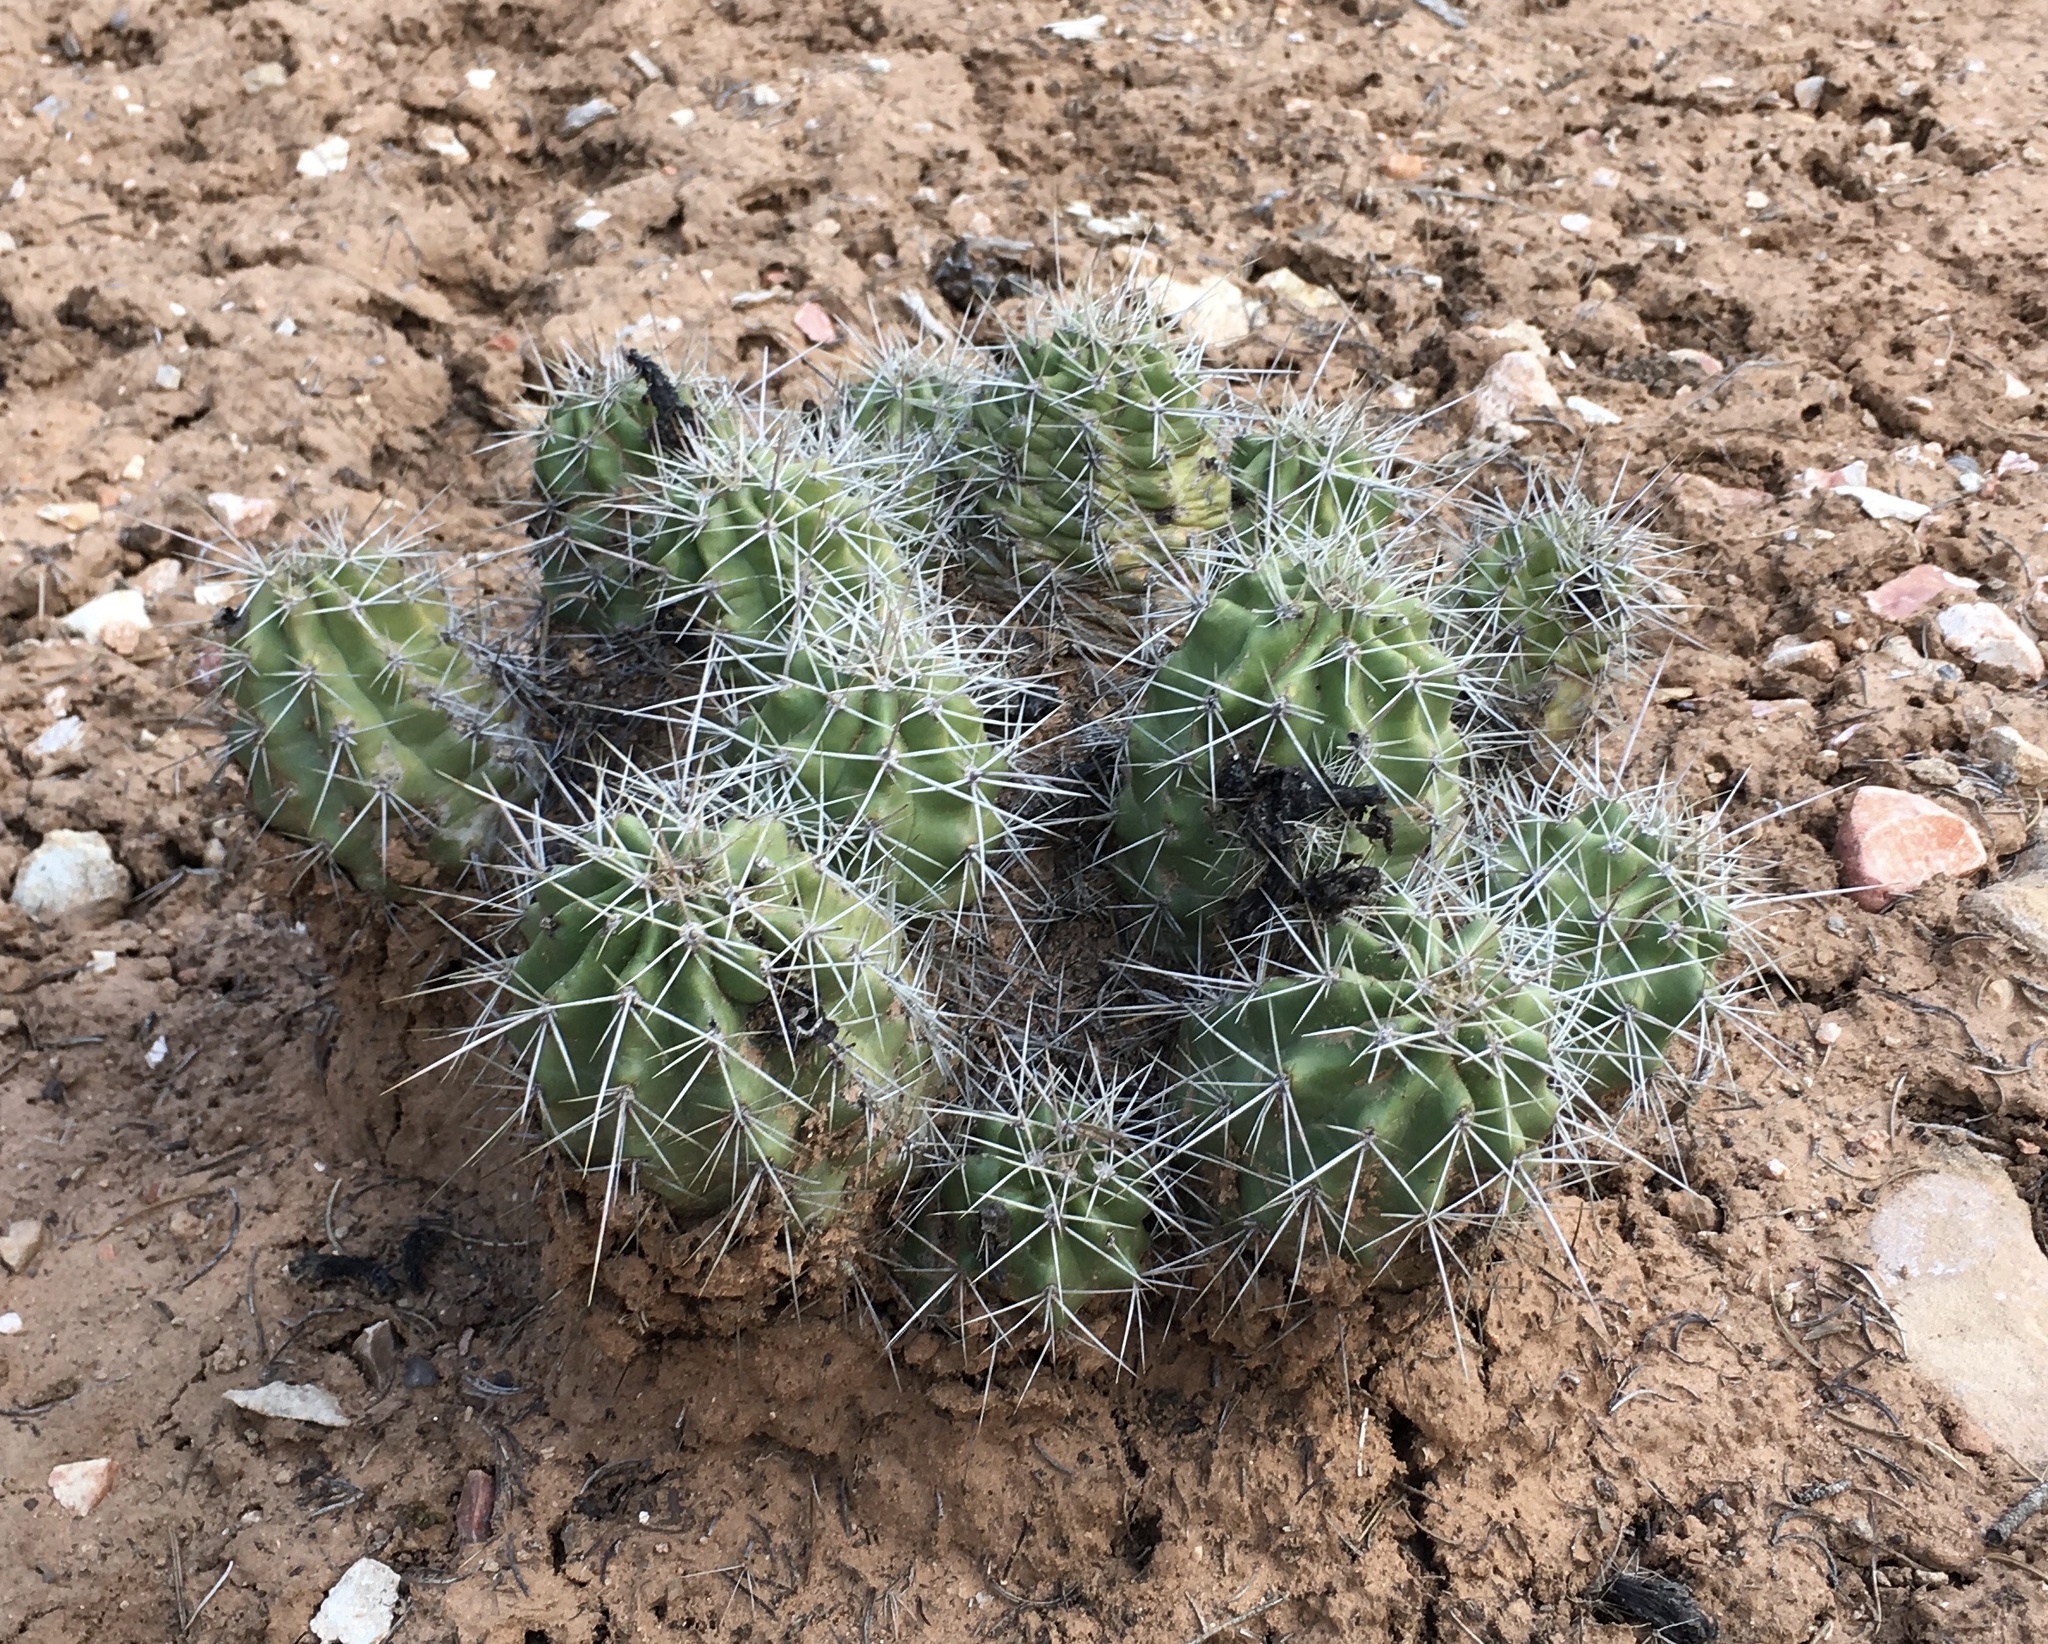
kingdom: Plantae
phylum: Tracheophyta
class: Magnoliopsida
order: Caryophyllales
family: Cactaceae
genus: Echinocereus
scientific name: Echinocereus triglochidiatus
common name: Claretcup hedgehog
